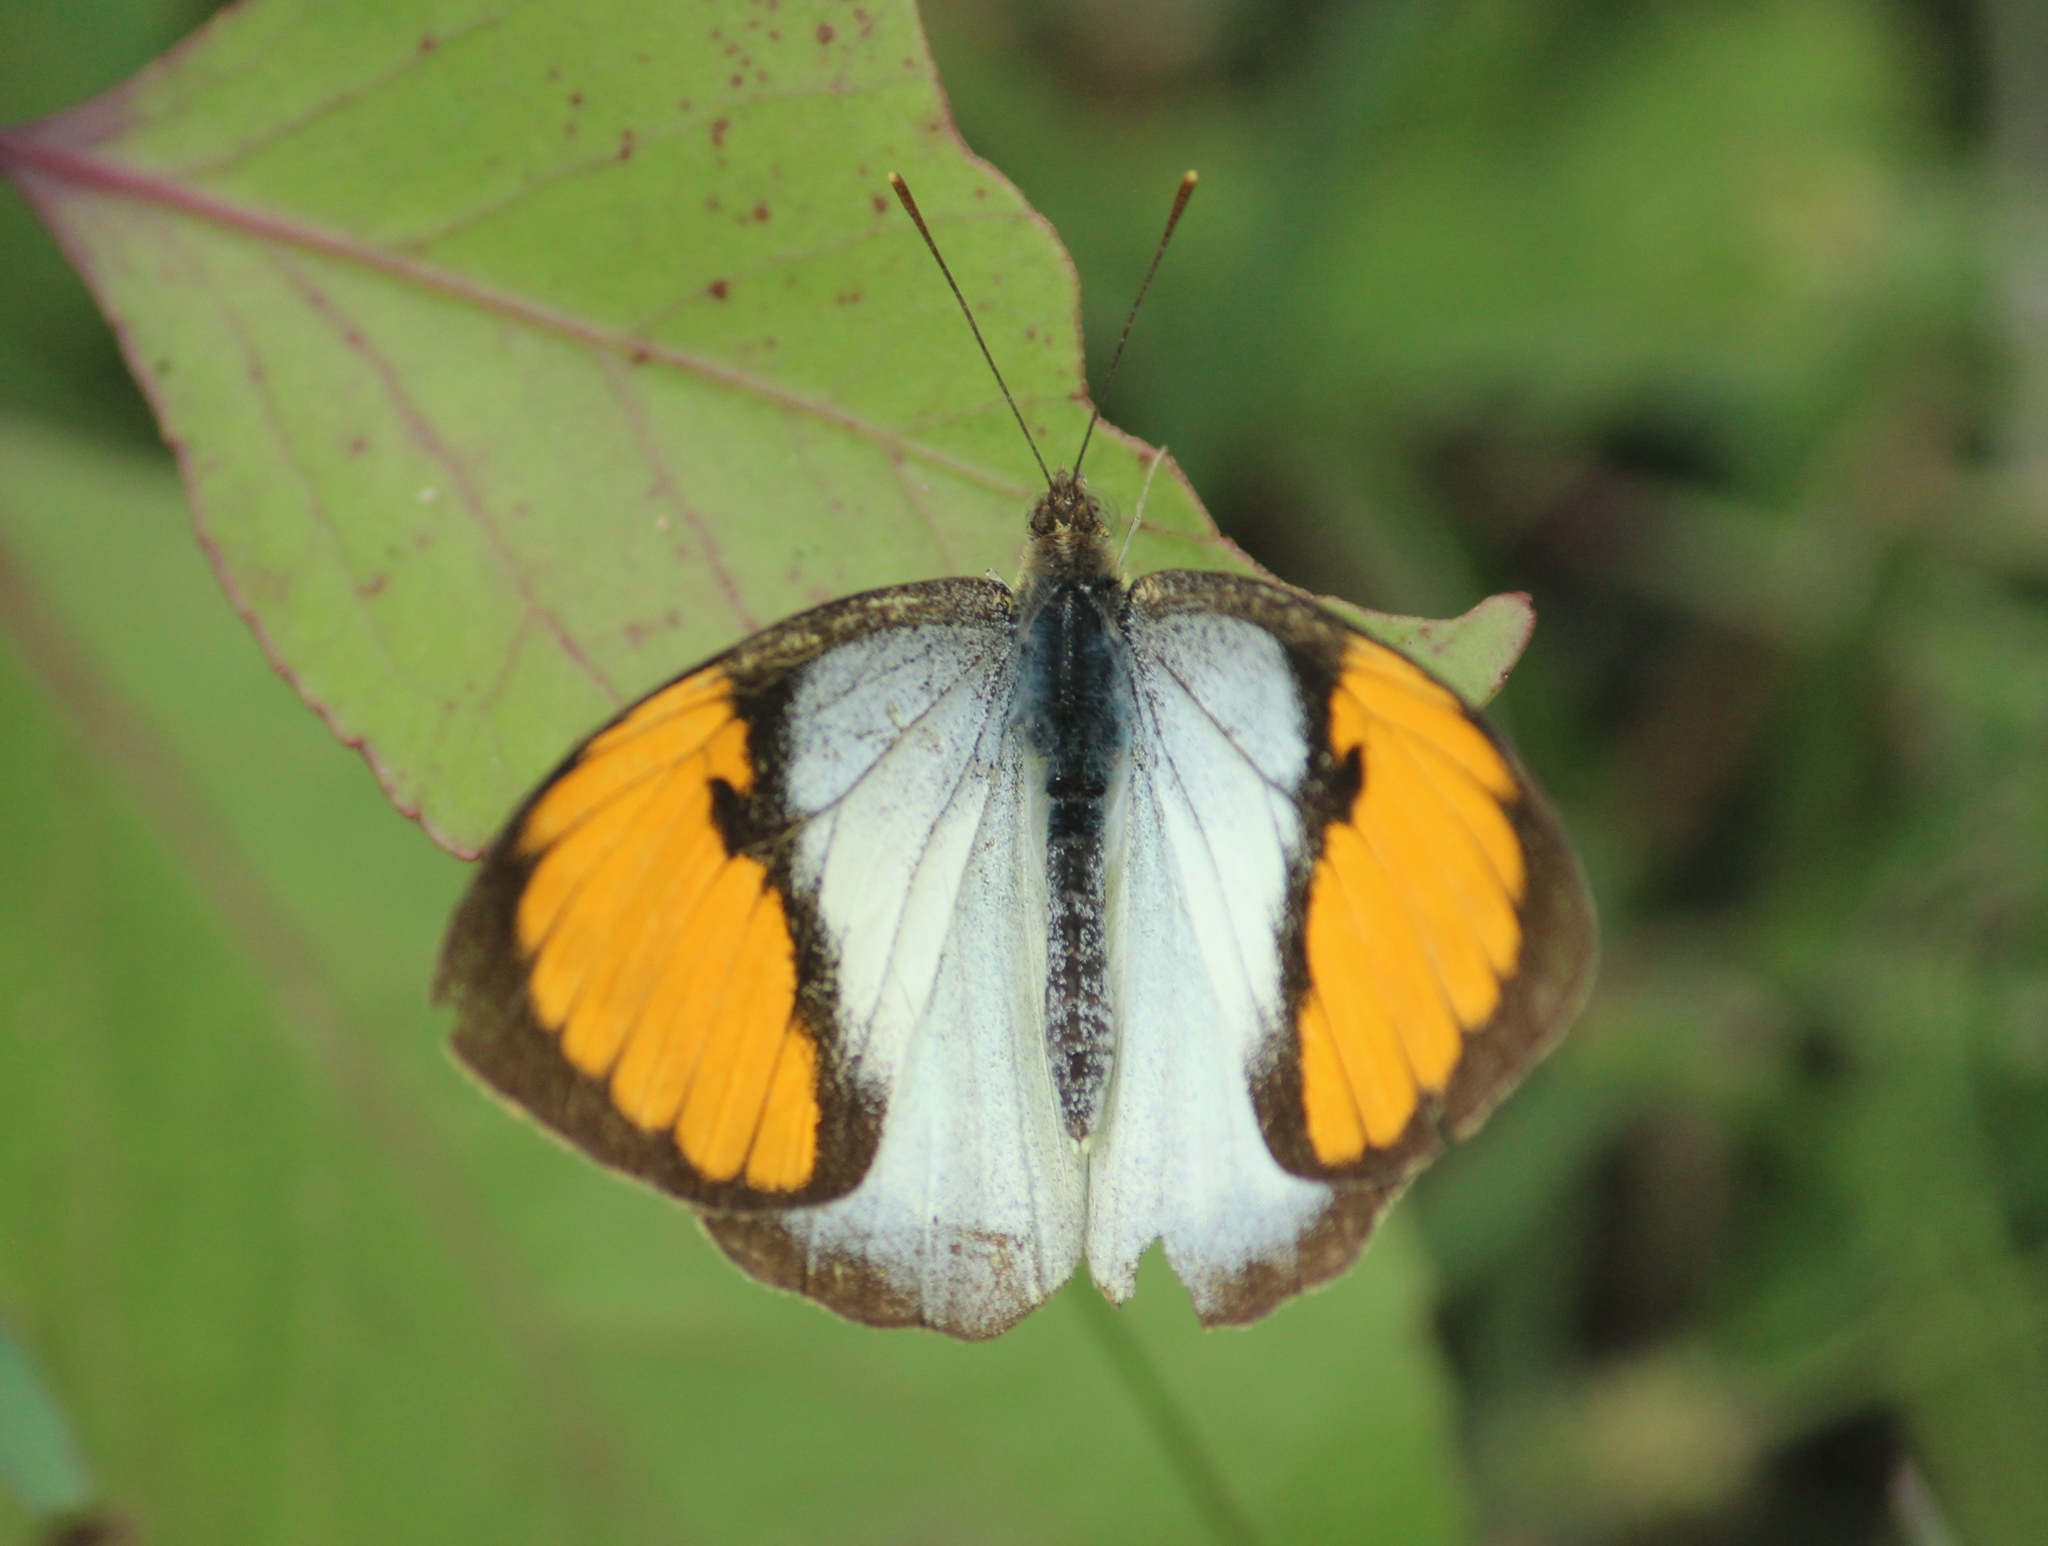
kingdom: Animalia
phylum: Arthropoda
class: Insecta
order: Lepidoptera
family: Pieridae
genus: Ixias
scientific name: Ixias marianne
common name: White orange tip
